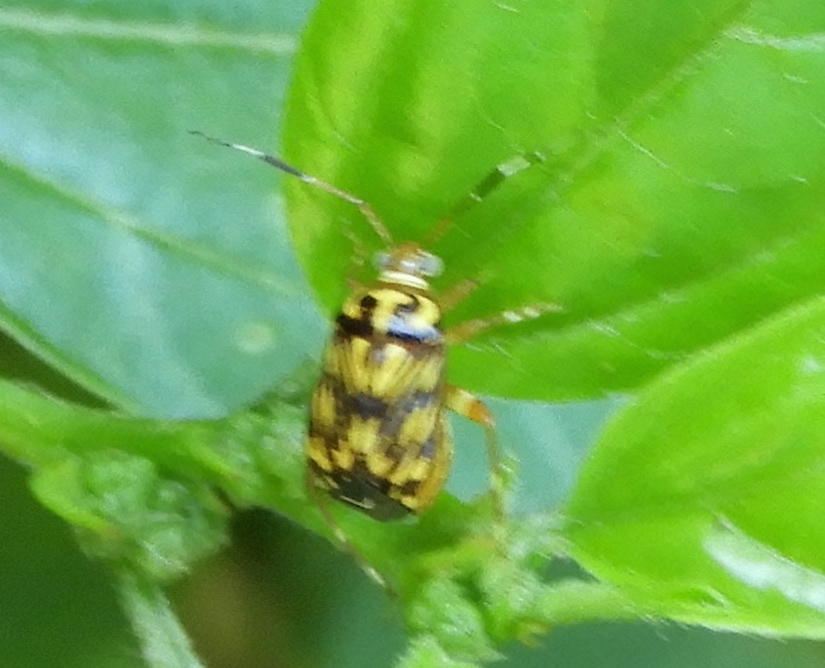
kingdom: Animalia
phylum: Arthropoda
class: Insecta
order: Hemiptera
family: Miridae
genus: Taedia
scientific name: Taedia parenthesis
